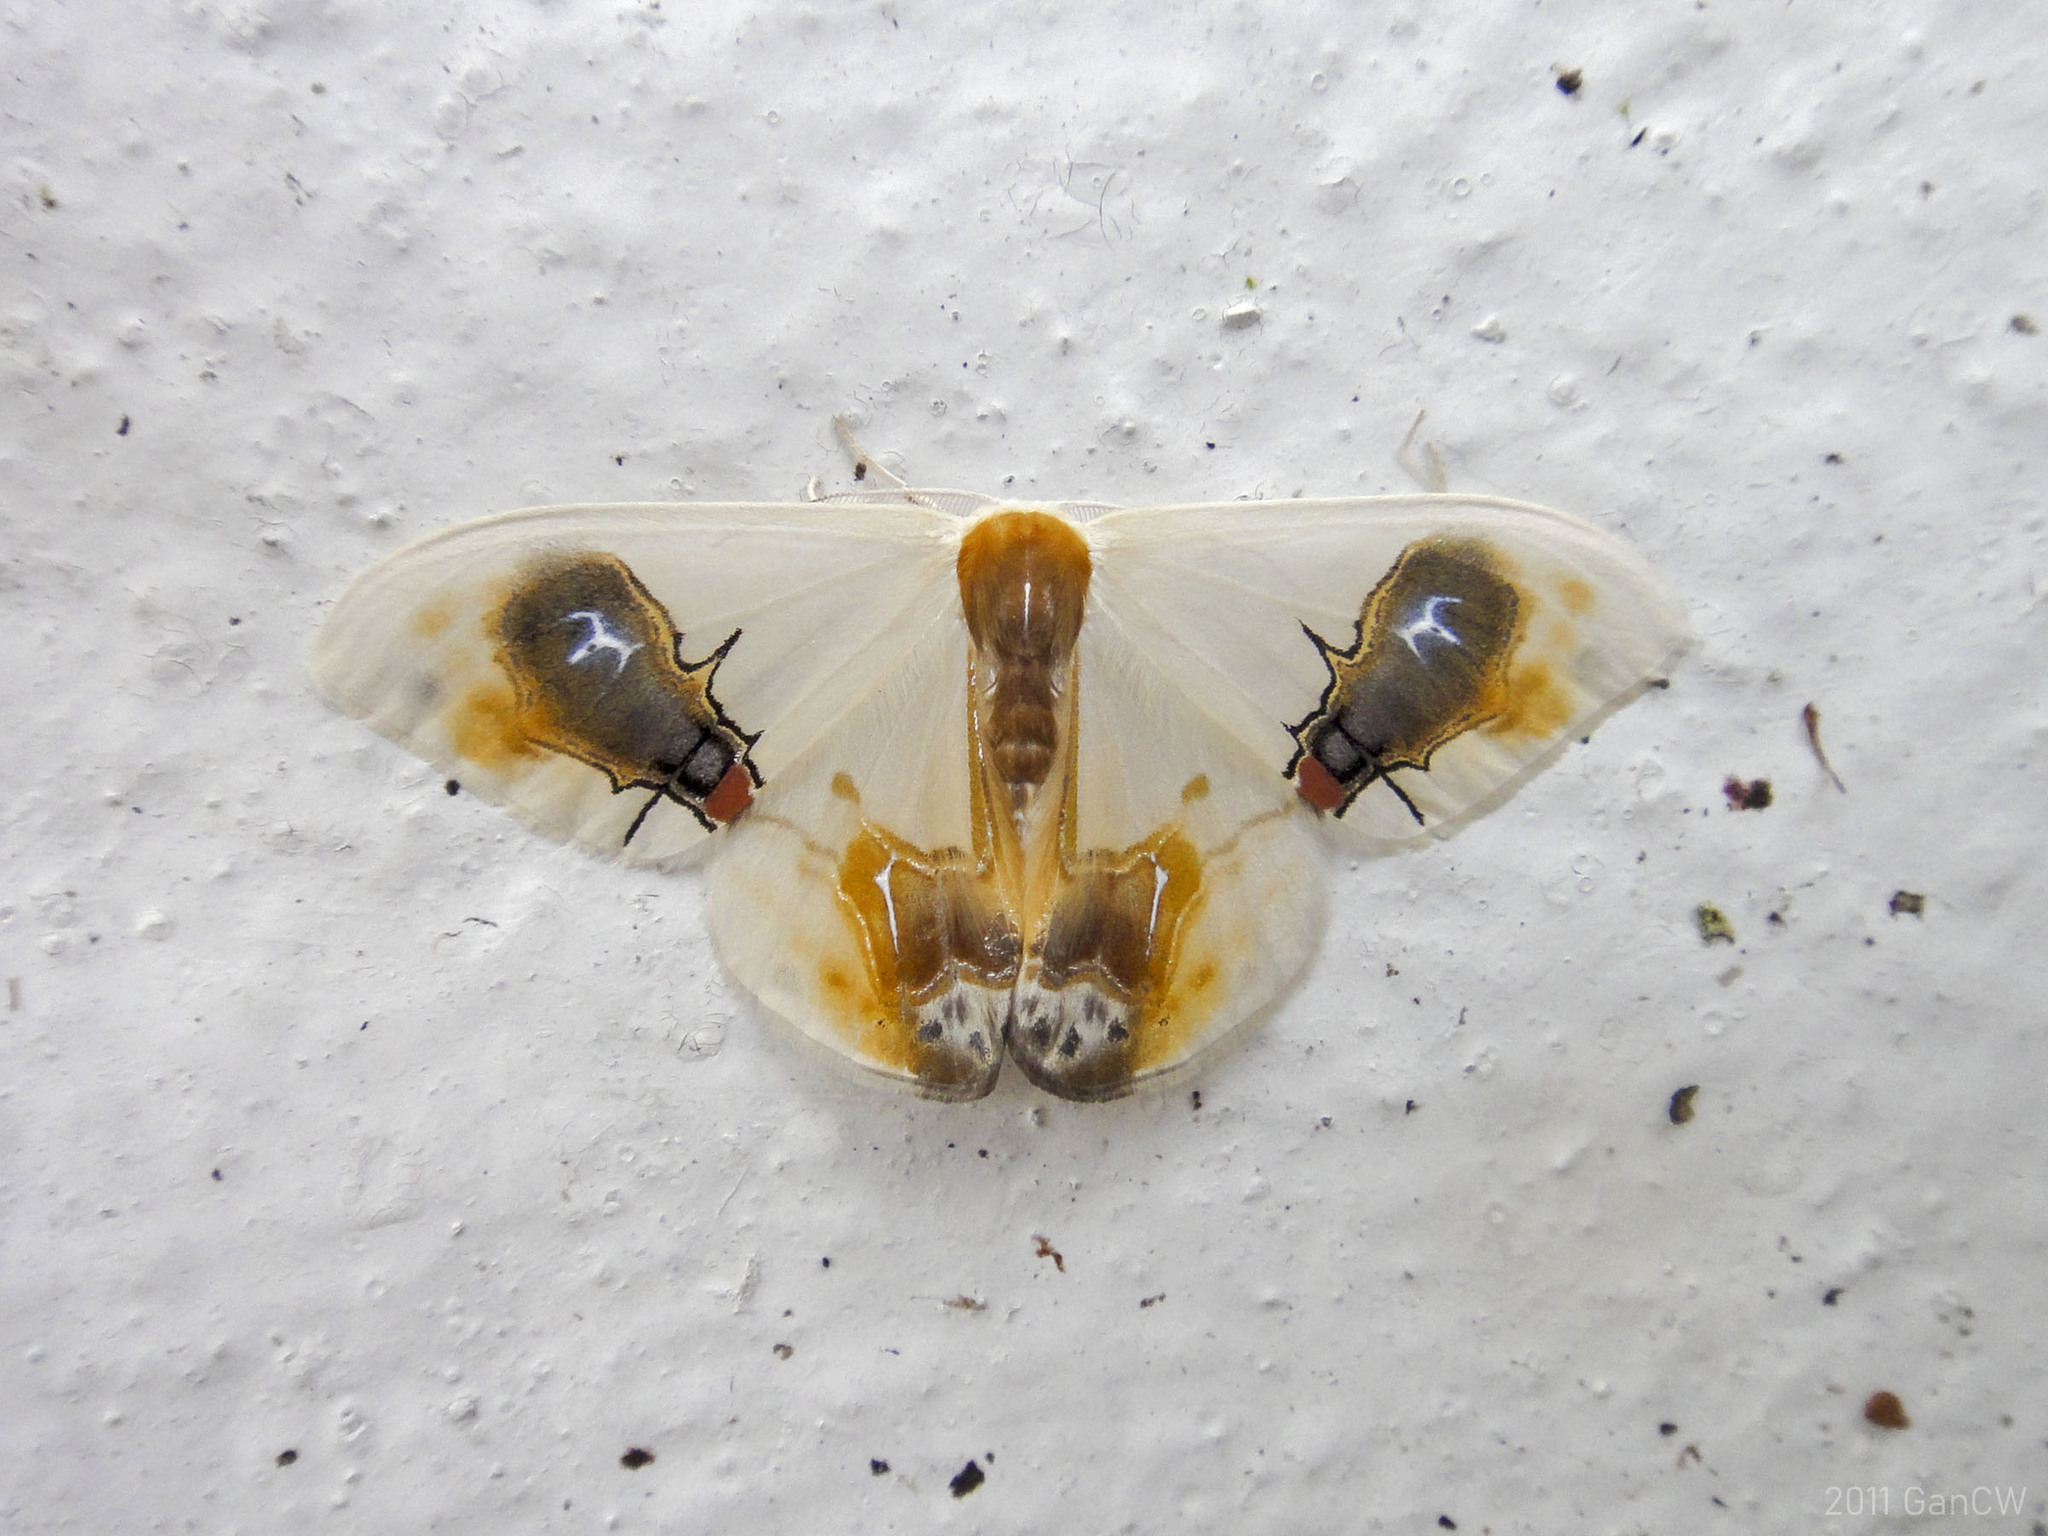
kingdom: Animalia
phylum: Arthropoda
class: Insecta
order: Lepidoptera
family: Drepanidae
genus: Macrocilix
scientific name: Macrocilix maia
